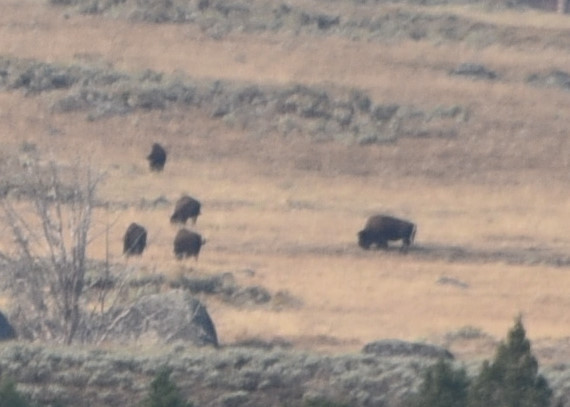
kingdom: Animalia
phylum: Chordata
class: Mammalia
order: Artiodactyla
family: Bovidae
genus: Bison
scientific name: Bison bison
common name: American bison
